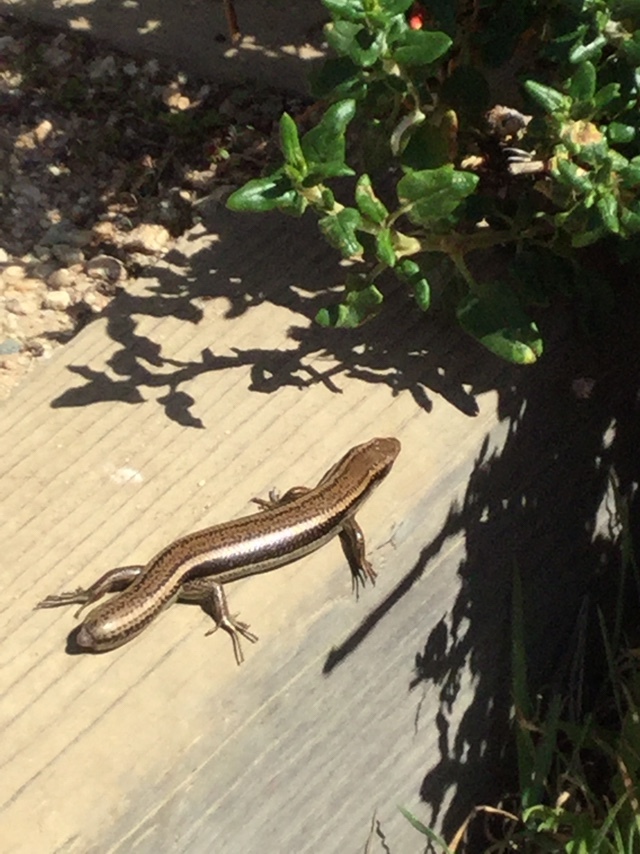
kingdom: Animalia
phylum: Chordata
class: Squamata
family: Scincidae
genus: Plestiodon
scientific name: Plestiodon skiltonianus
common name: Coronado island skink [interparietalis]
